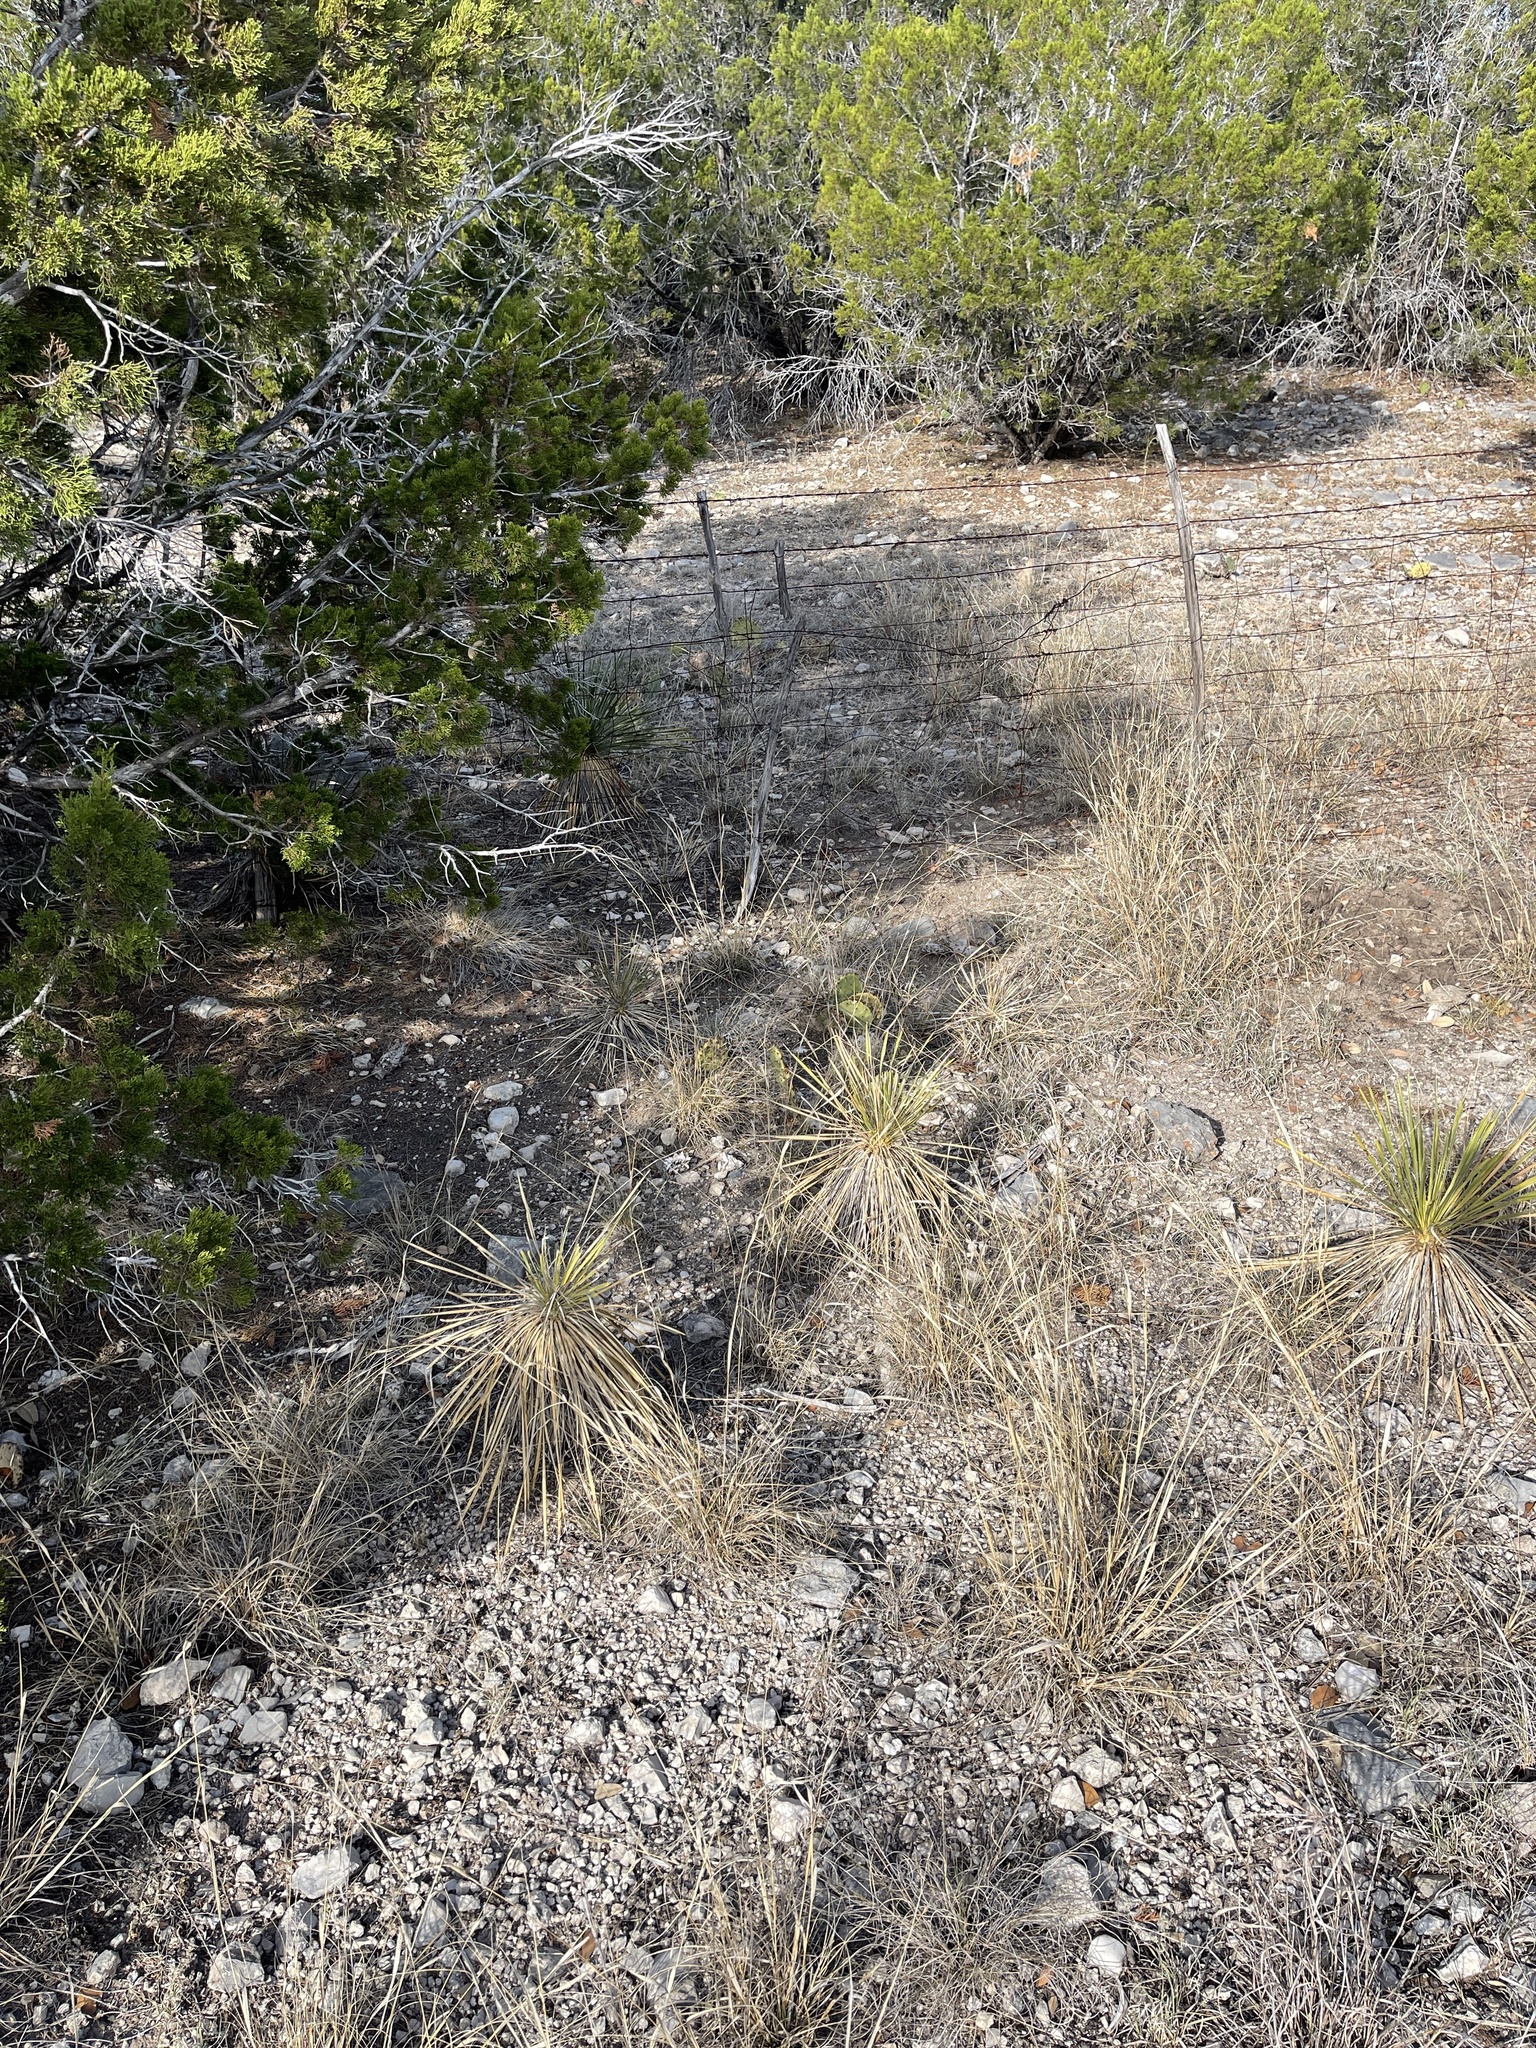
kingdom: Plantae
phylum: Tracheophyta
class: Liliopsida
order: Asparagales
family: Asparagaceae
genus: Yucca
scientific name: Yucca constricta
